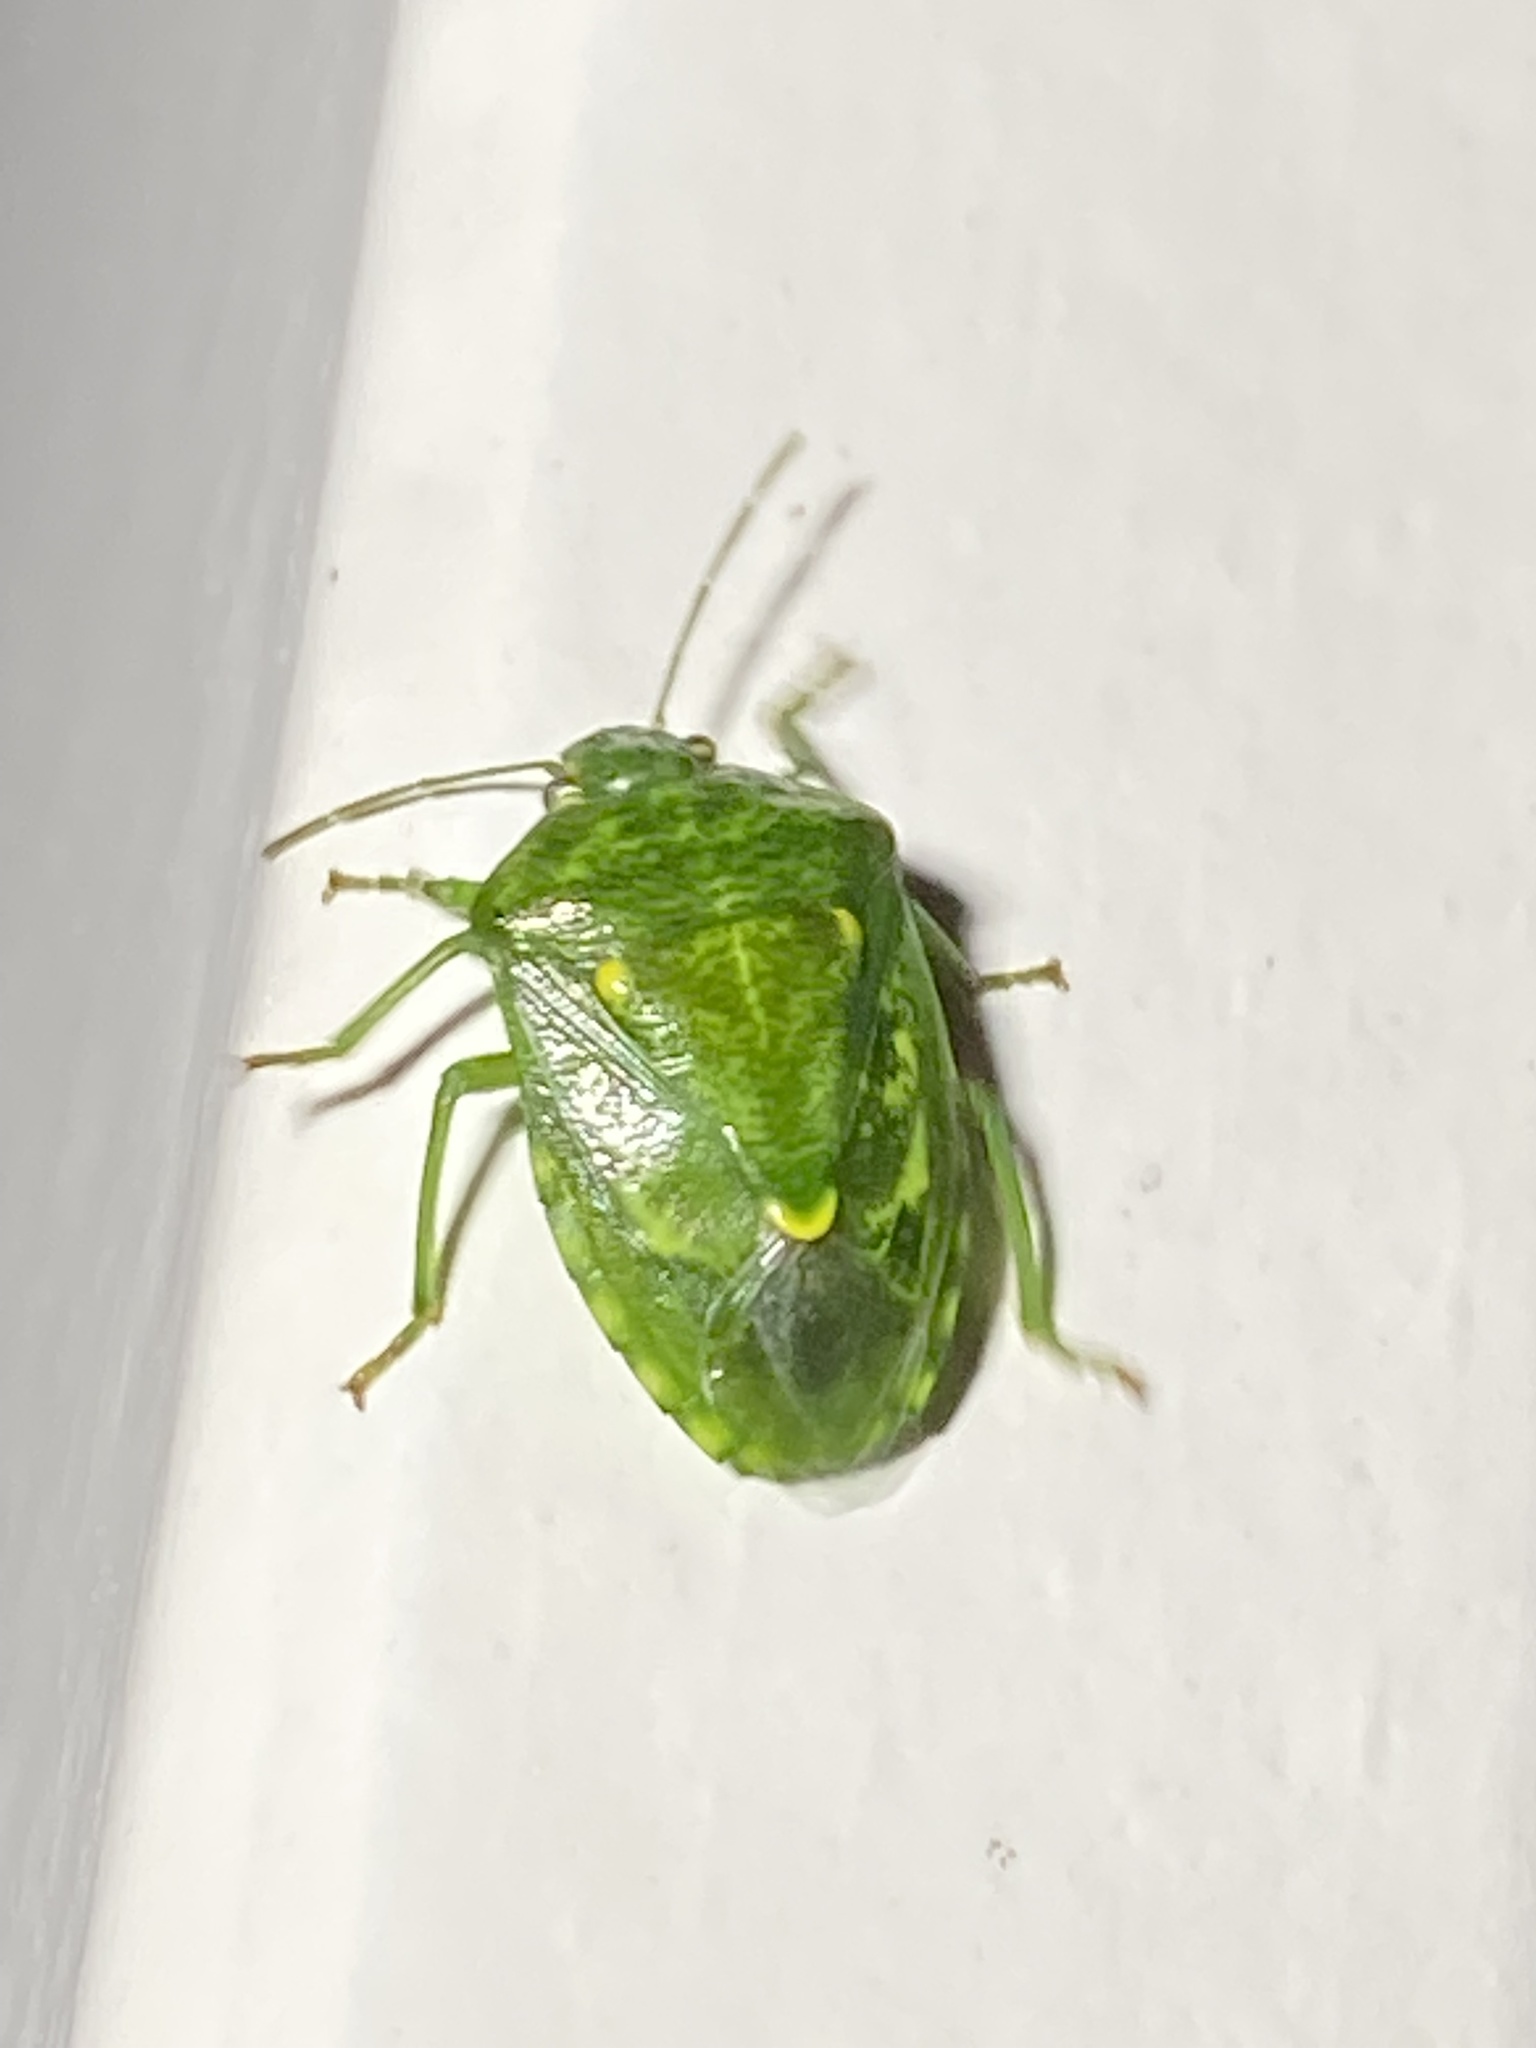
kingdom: Animalia
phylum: Arthropoda
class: Insecta
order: Hemiptera
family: Pentatomidae
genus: Banasa
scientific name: Banasa euchlora
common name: Cedar berry bug
